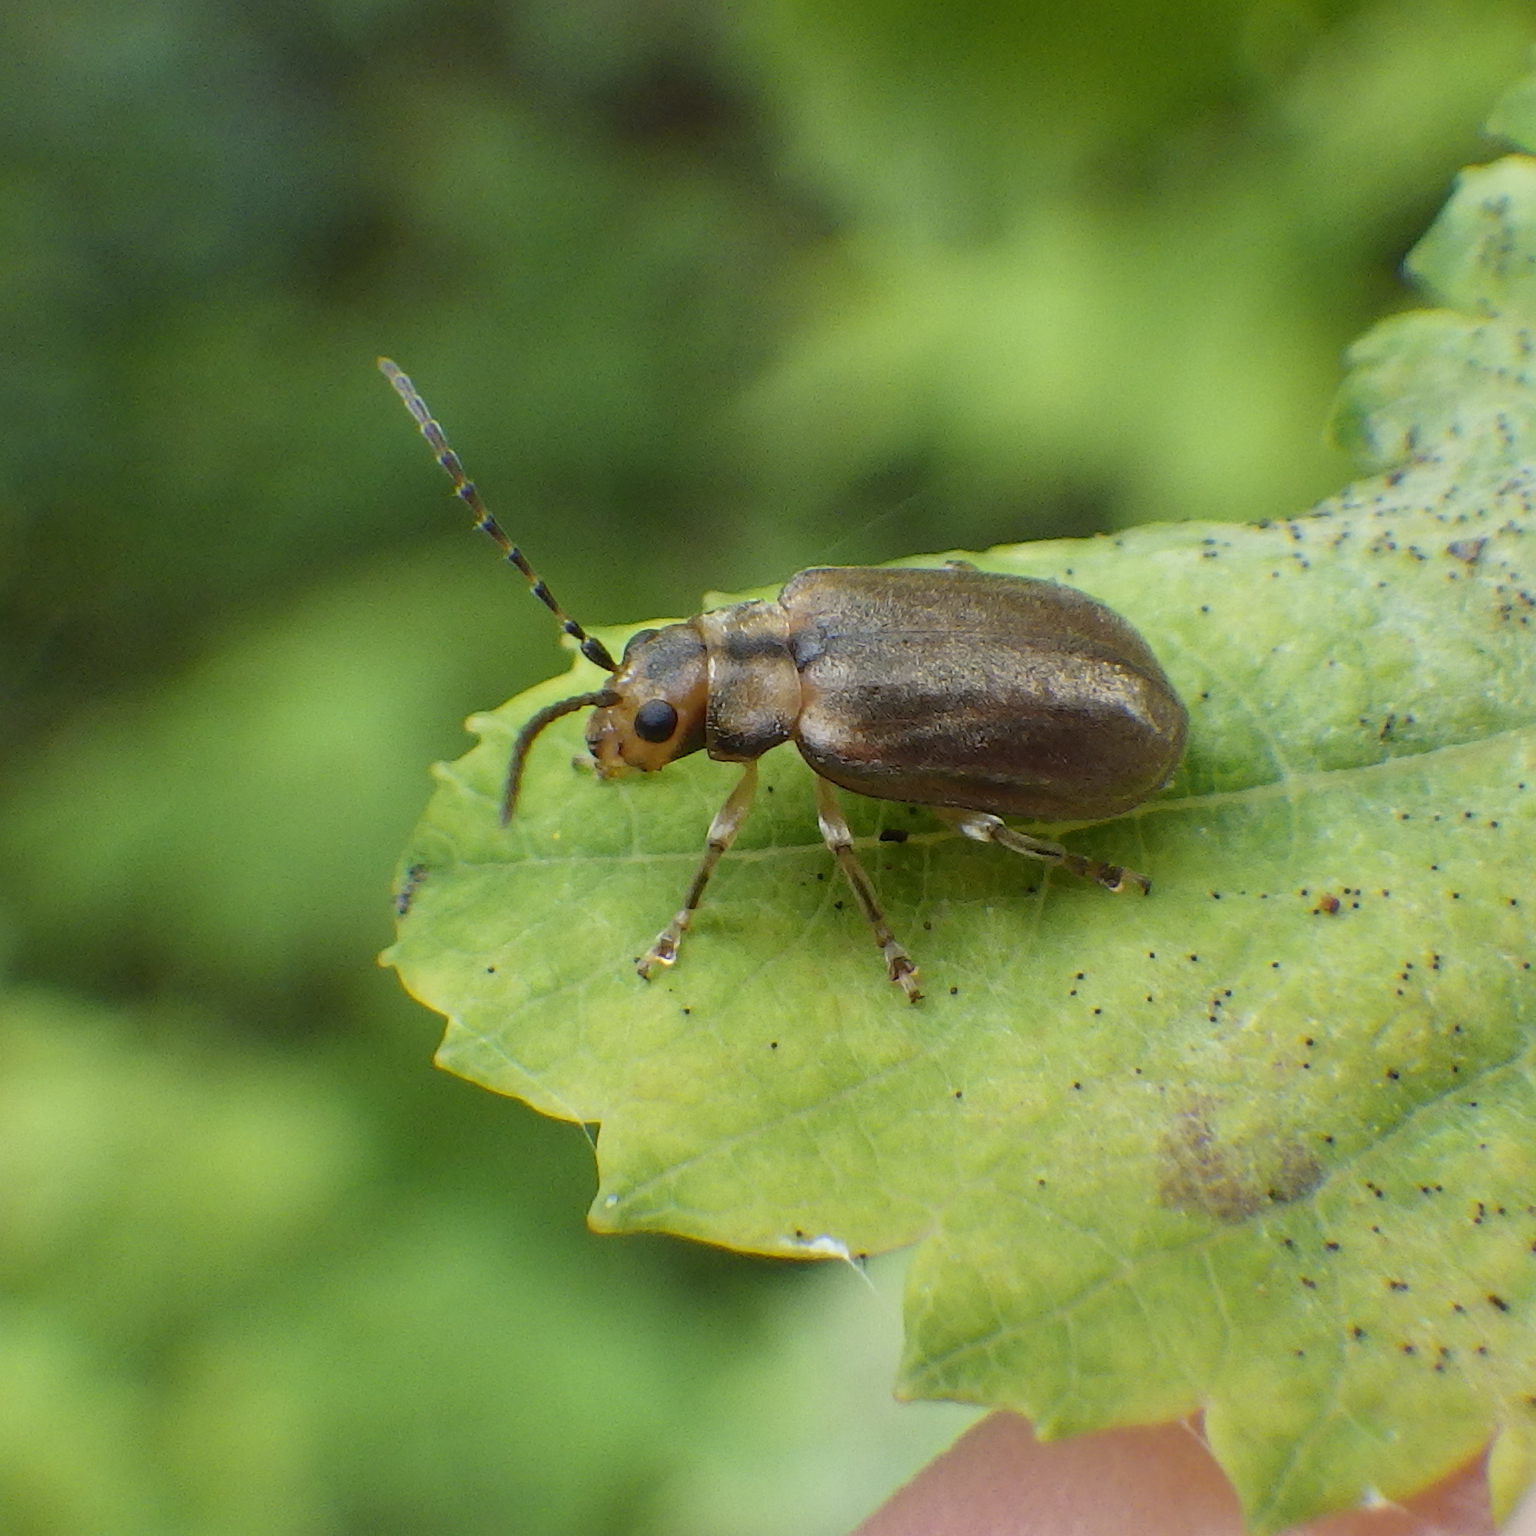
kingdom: Animalia
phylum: Arthropoda
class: Insecta
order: Coleoptera
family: Chrysomelidae
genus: Pyrrhalta
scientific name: Pyrrhalta viburni
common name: Guelder-rose leaf beetle
